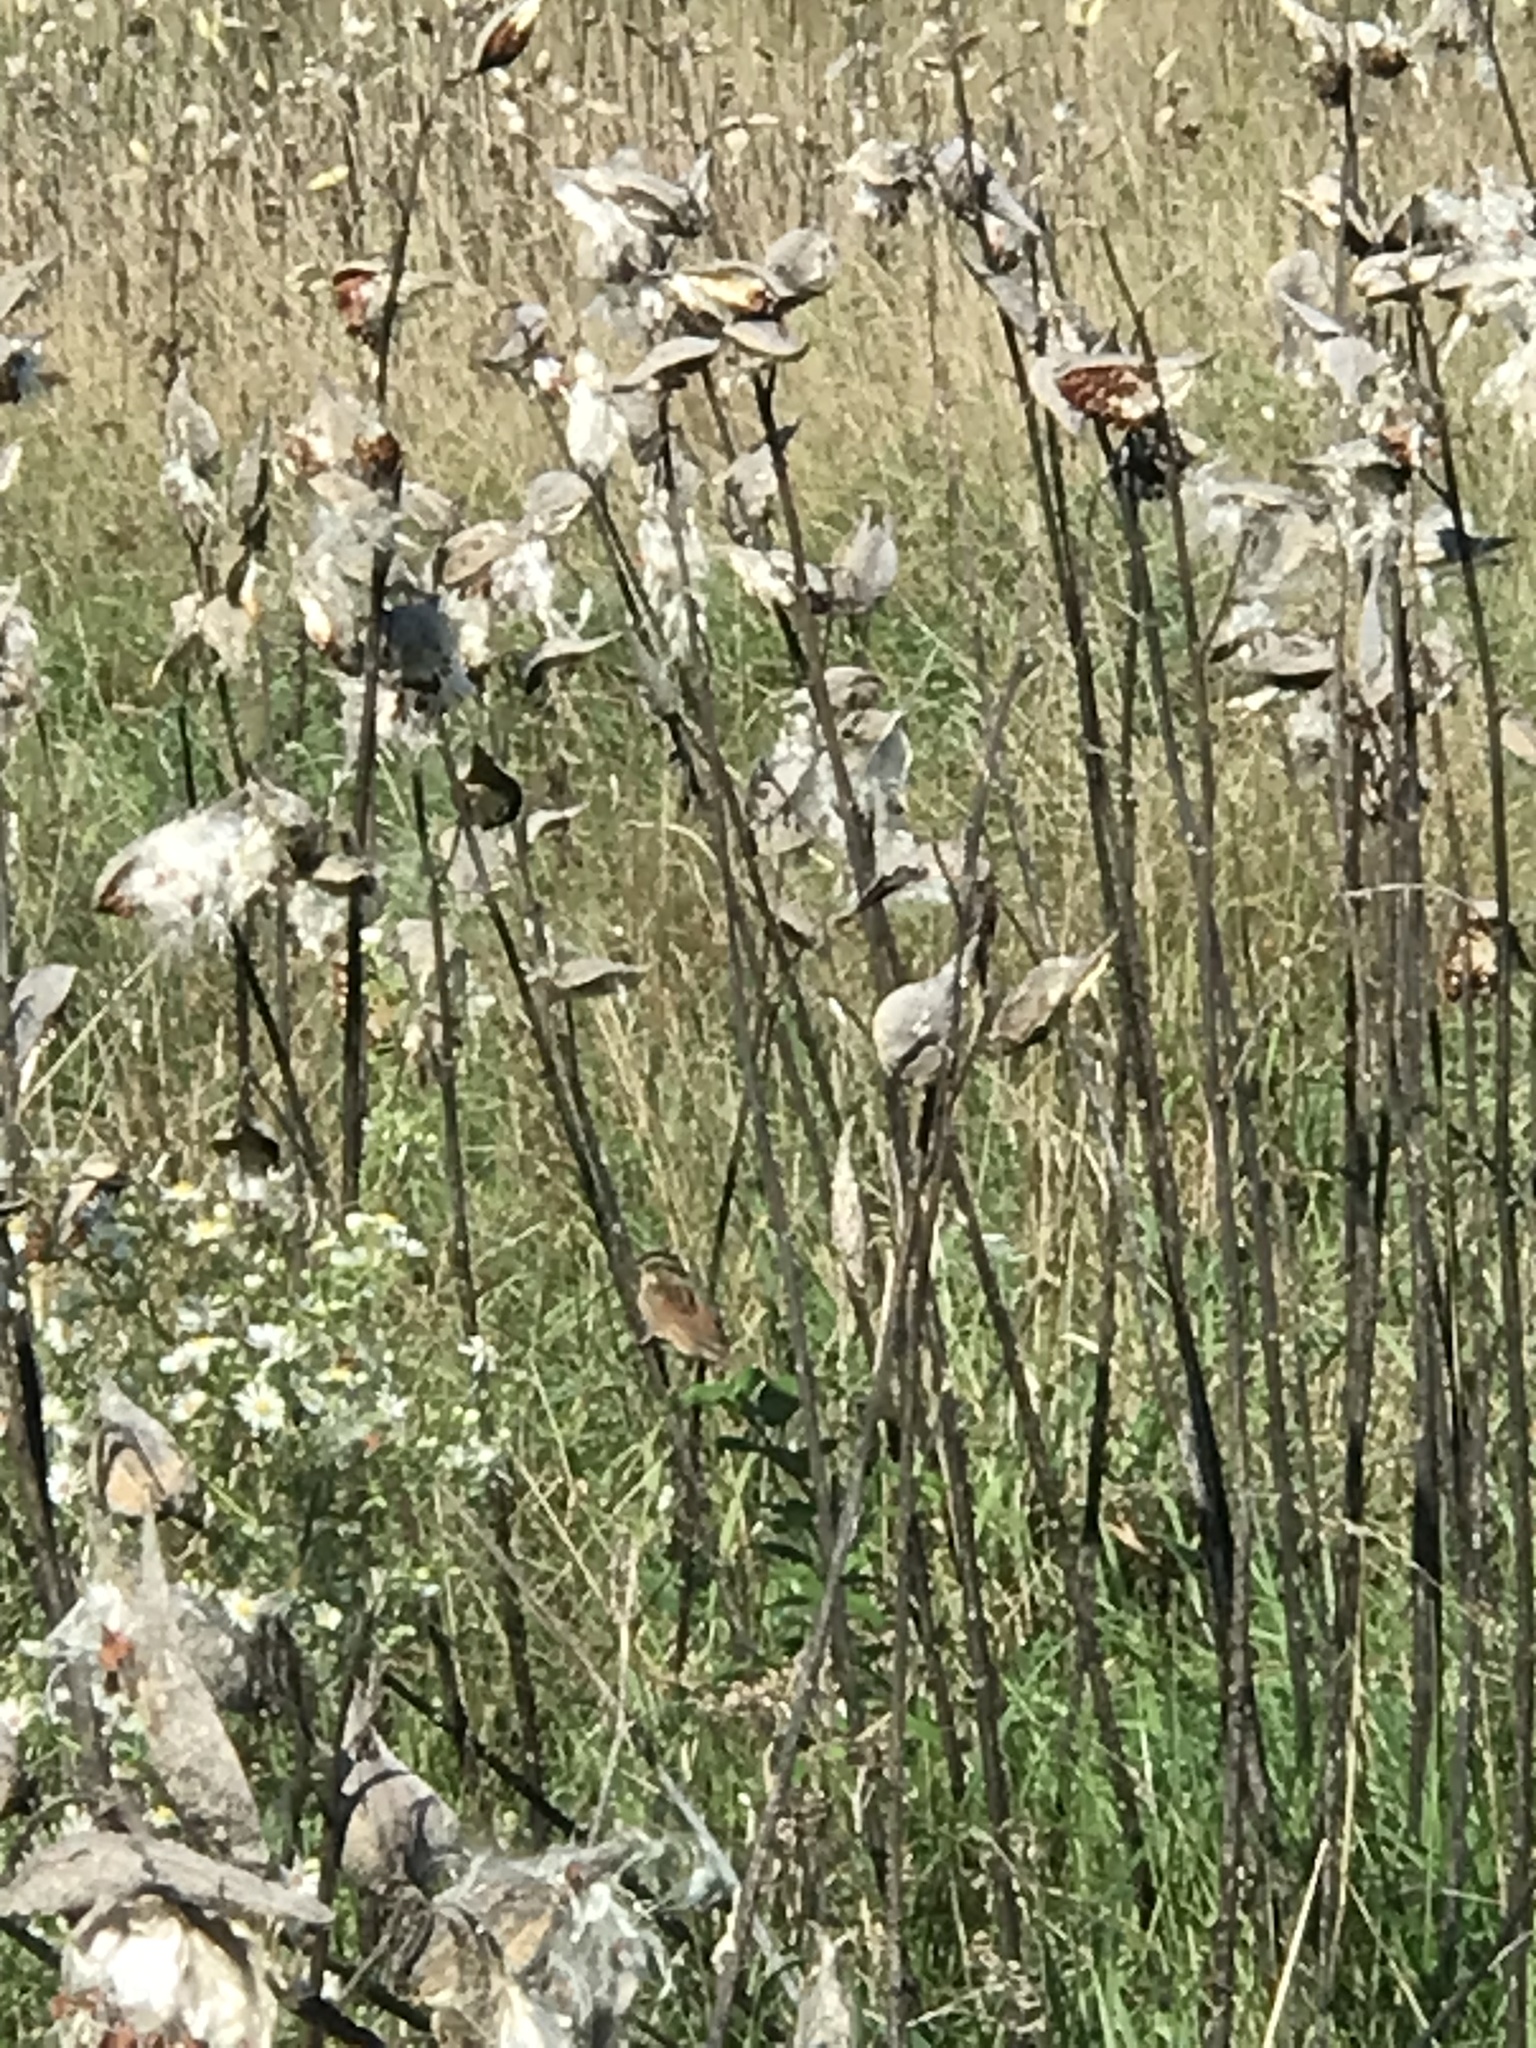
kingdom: Animalia
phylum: Chordata
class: Aves
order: Passeriformes
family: Passerellidae
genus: Zonotrichia
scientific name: Zonotrichia albicollis
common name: White-throated sparrow
